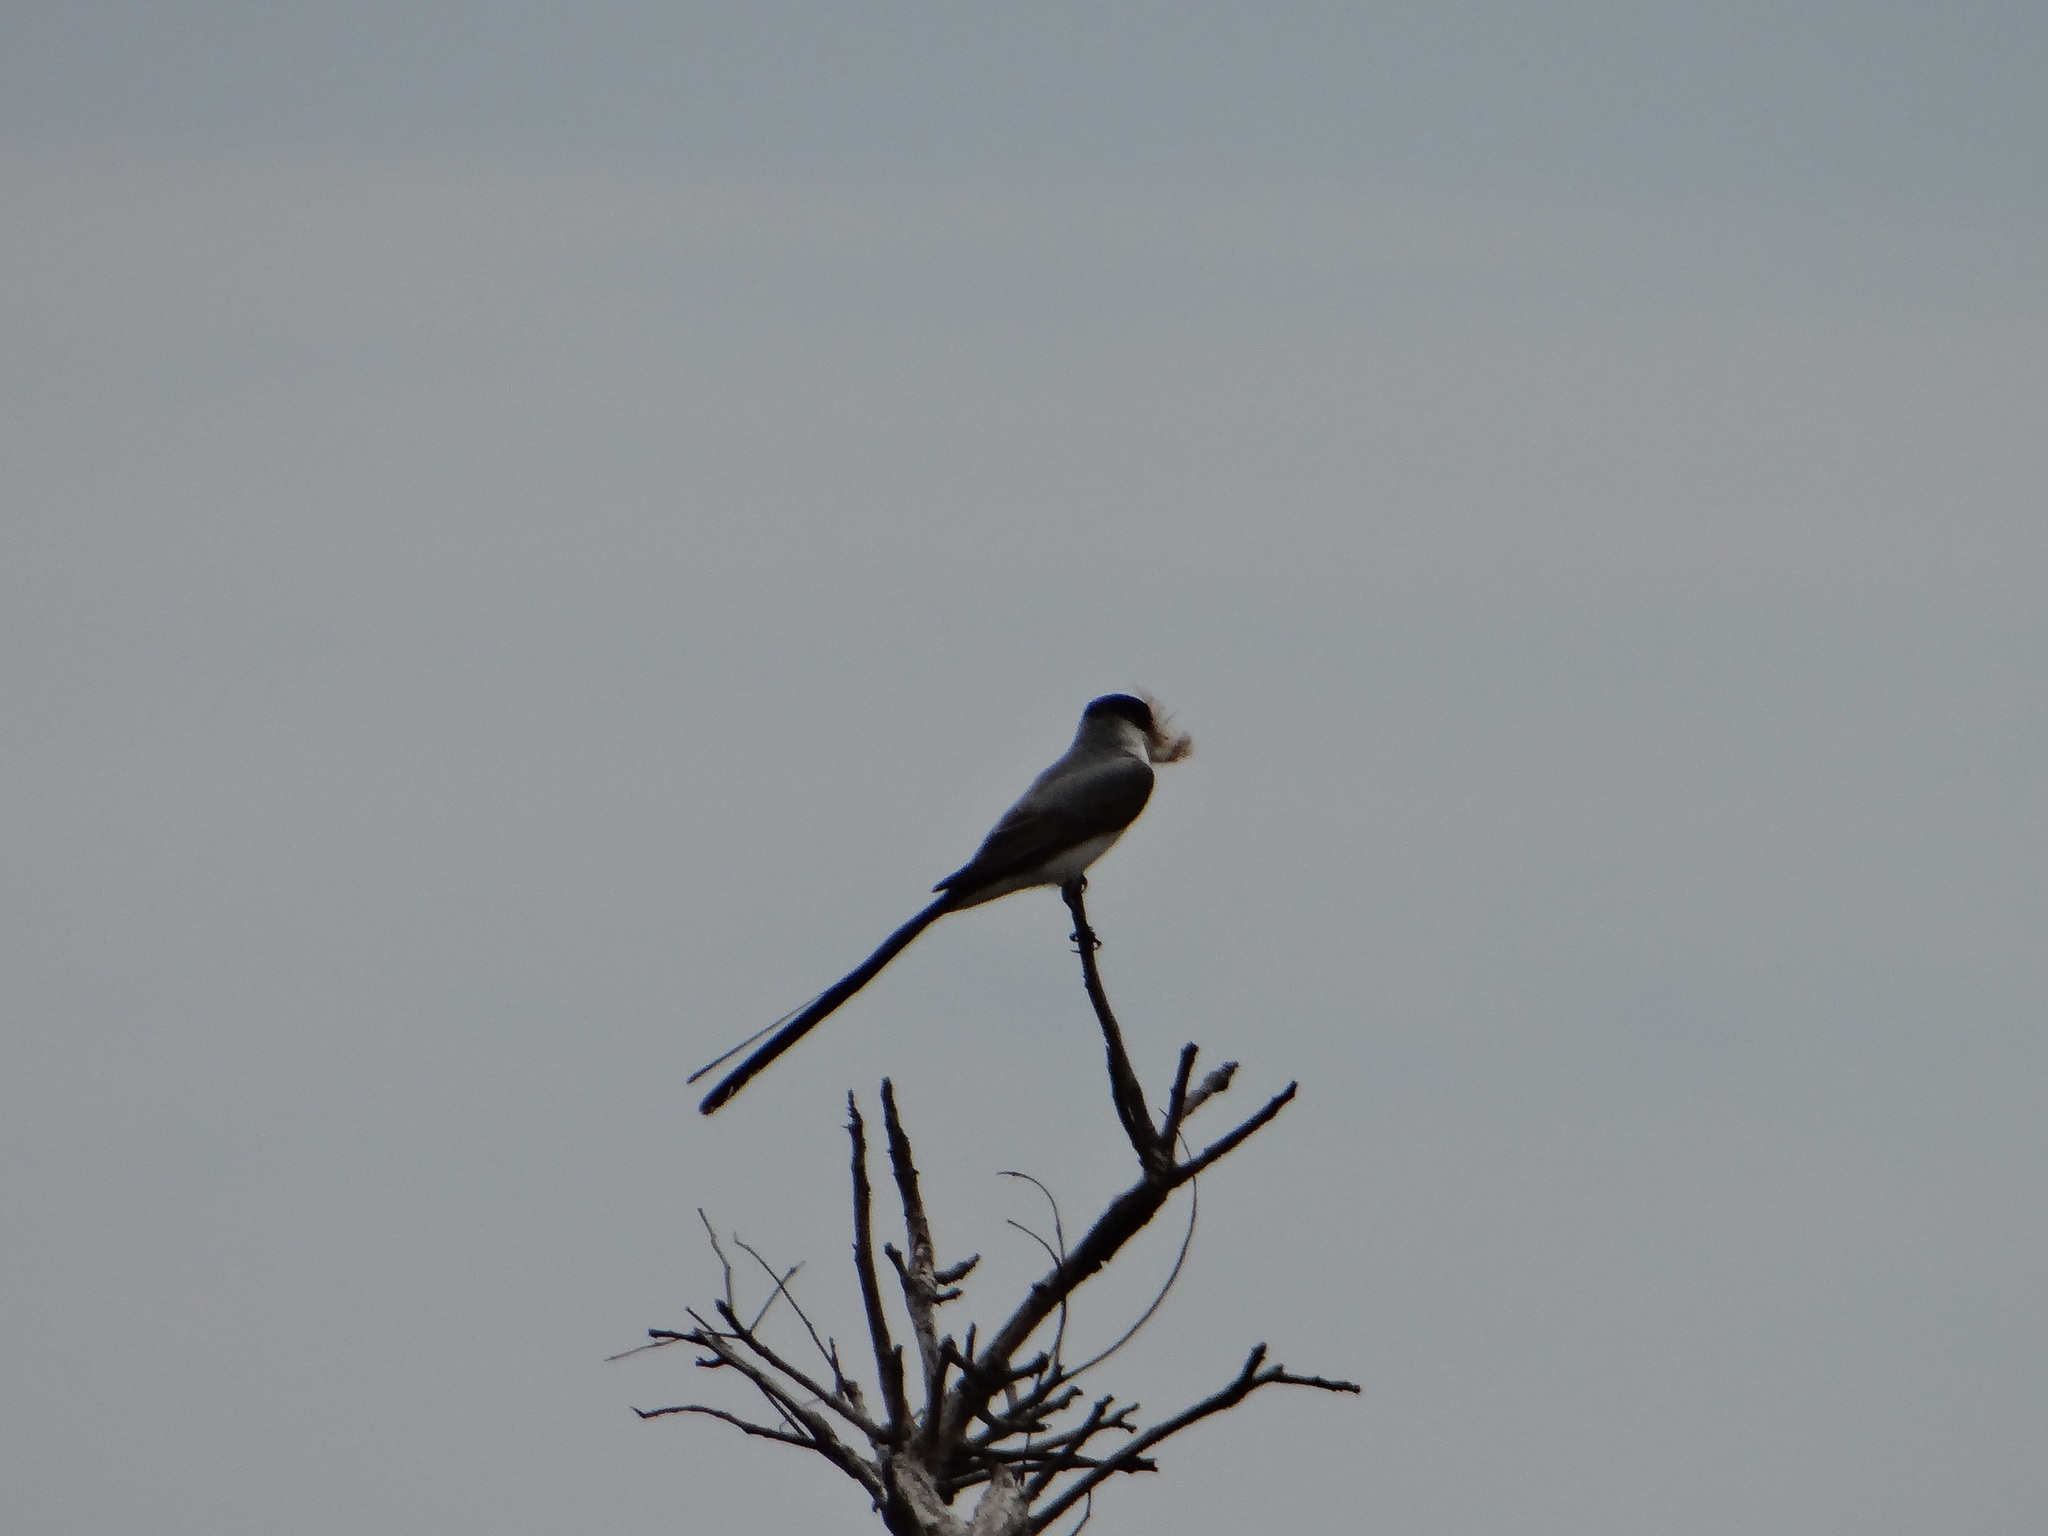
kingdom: Animalia
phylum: Chordata
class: Aves
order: Passeriformes
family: Tyrannidae
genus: Tyrannus
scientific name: Tyrannus savana
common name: Fork-tailed flycatcher
